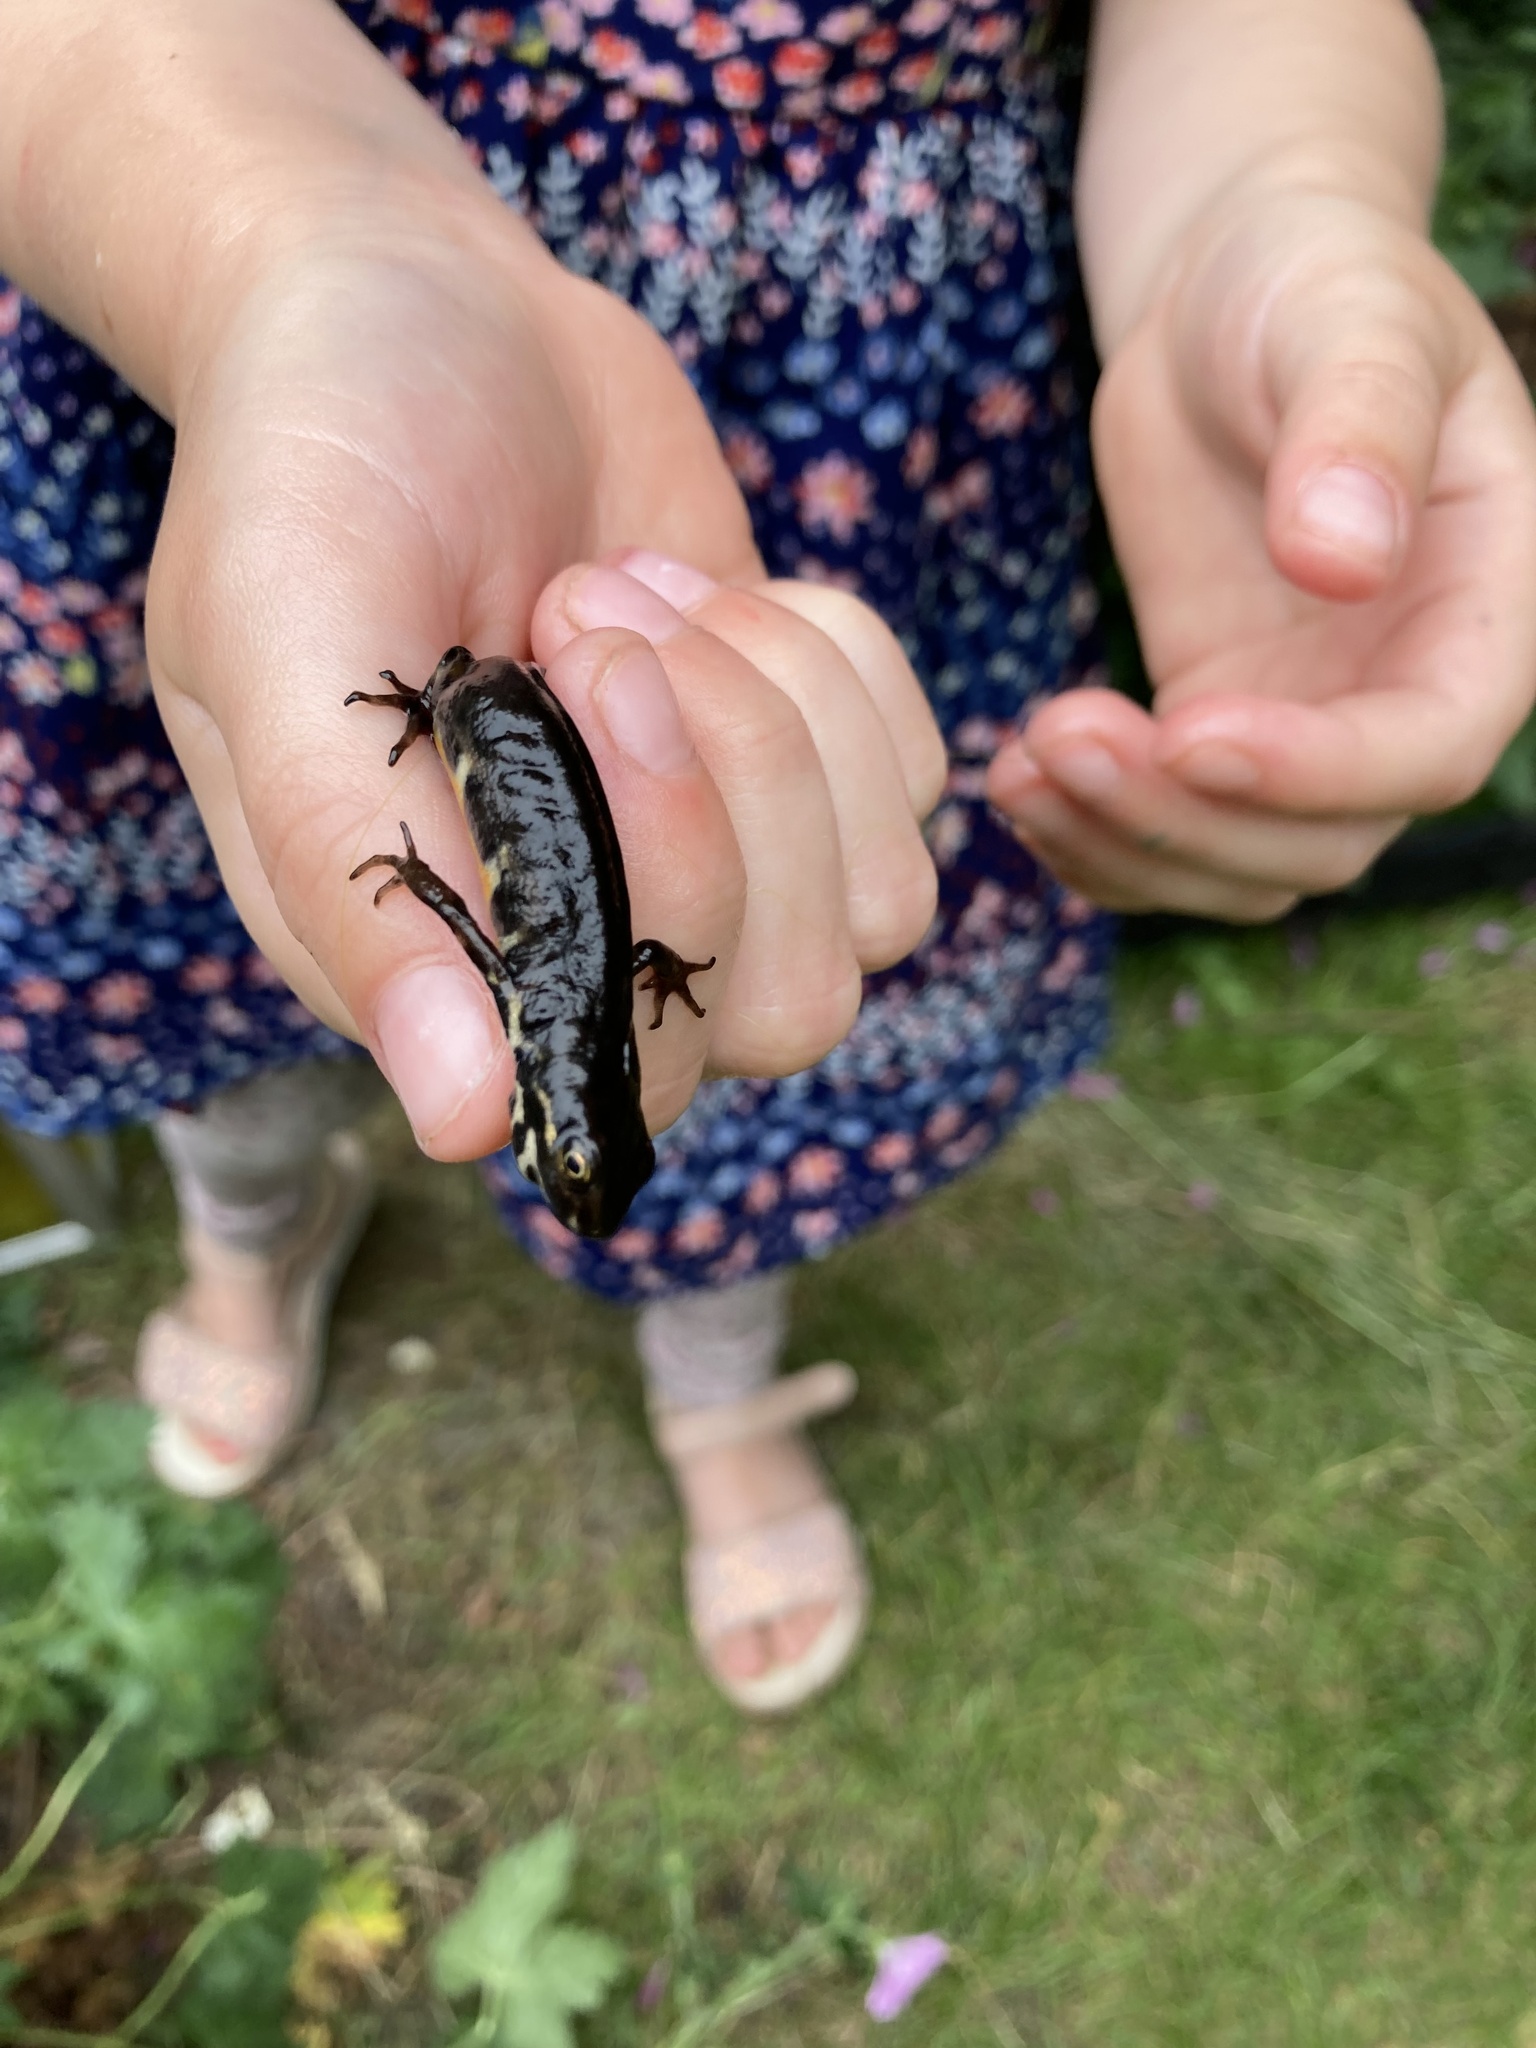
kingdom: Animalia
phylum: Chordata
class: Amphibia
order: Caudata
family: Salamandridae
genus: Lissotriton
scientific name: Lissotriton vulgaris
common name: Smooth newt
